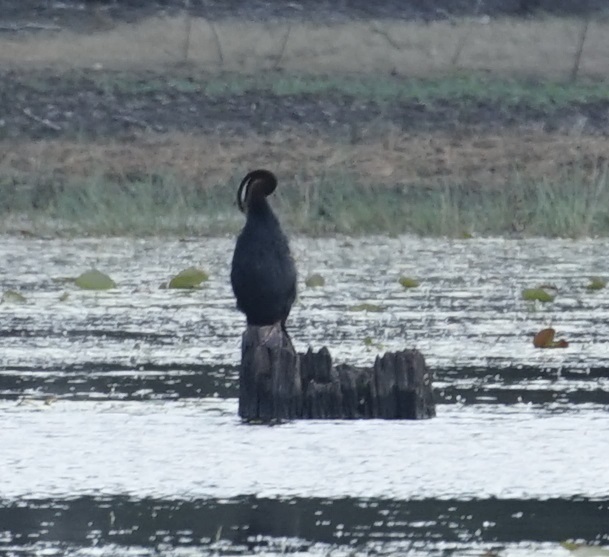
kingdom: Animalia
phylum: Chordata
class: Aves
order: Suliformes
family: Anhingidae
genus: Anhinga
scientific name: Anhinga novaehollandiae
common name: Australasian darter
